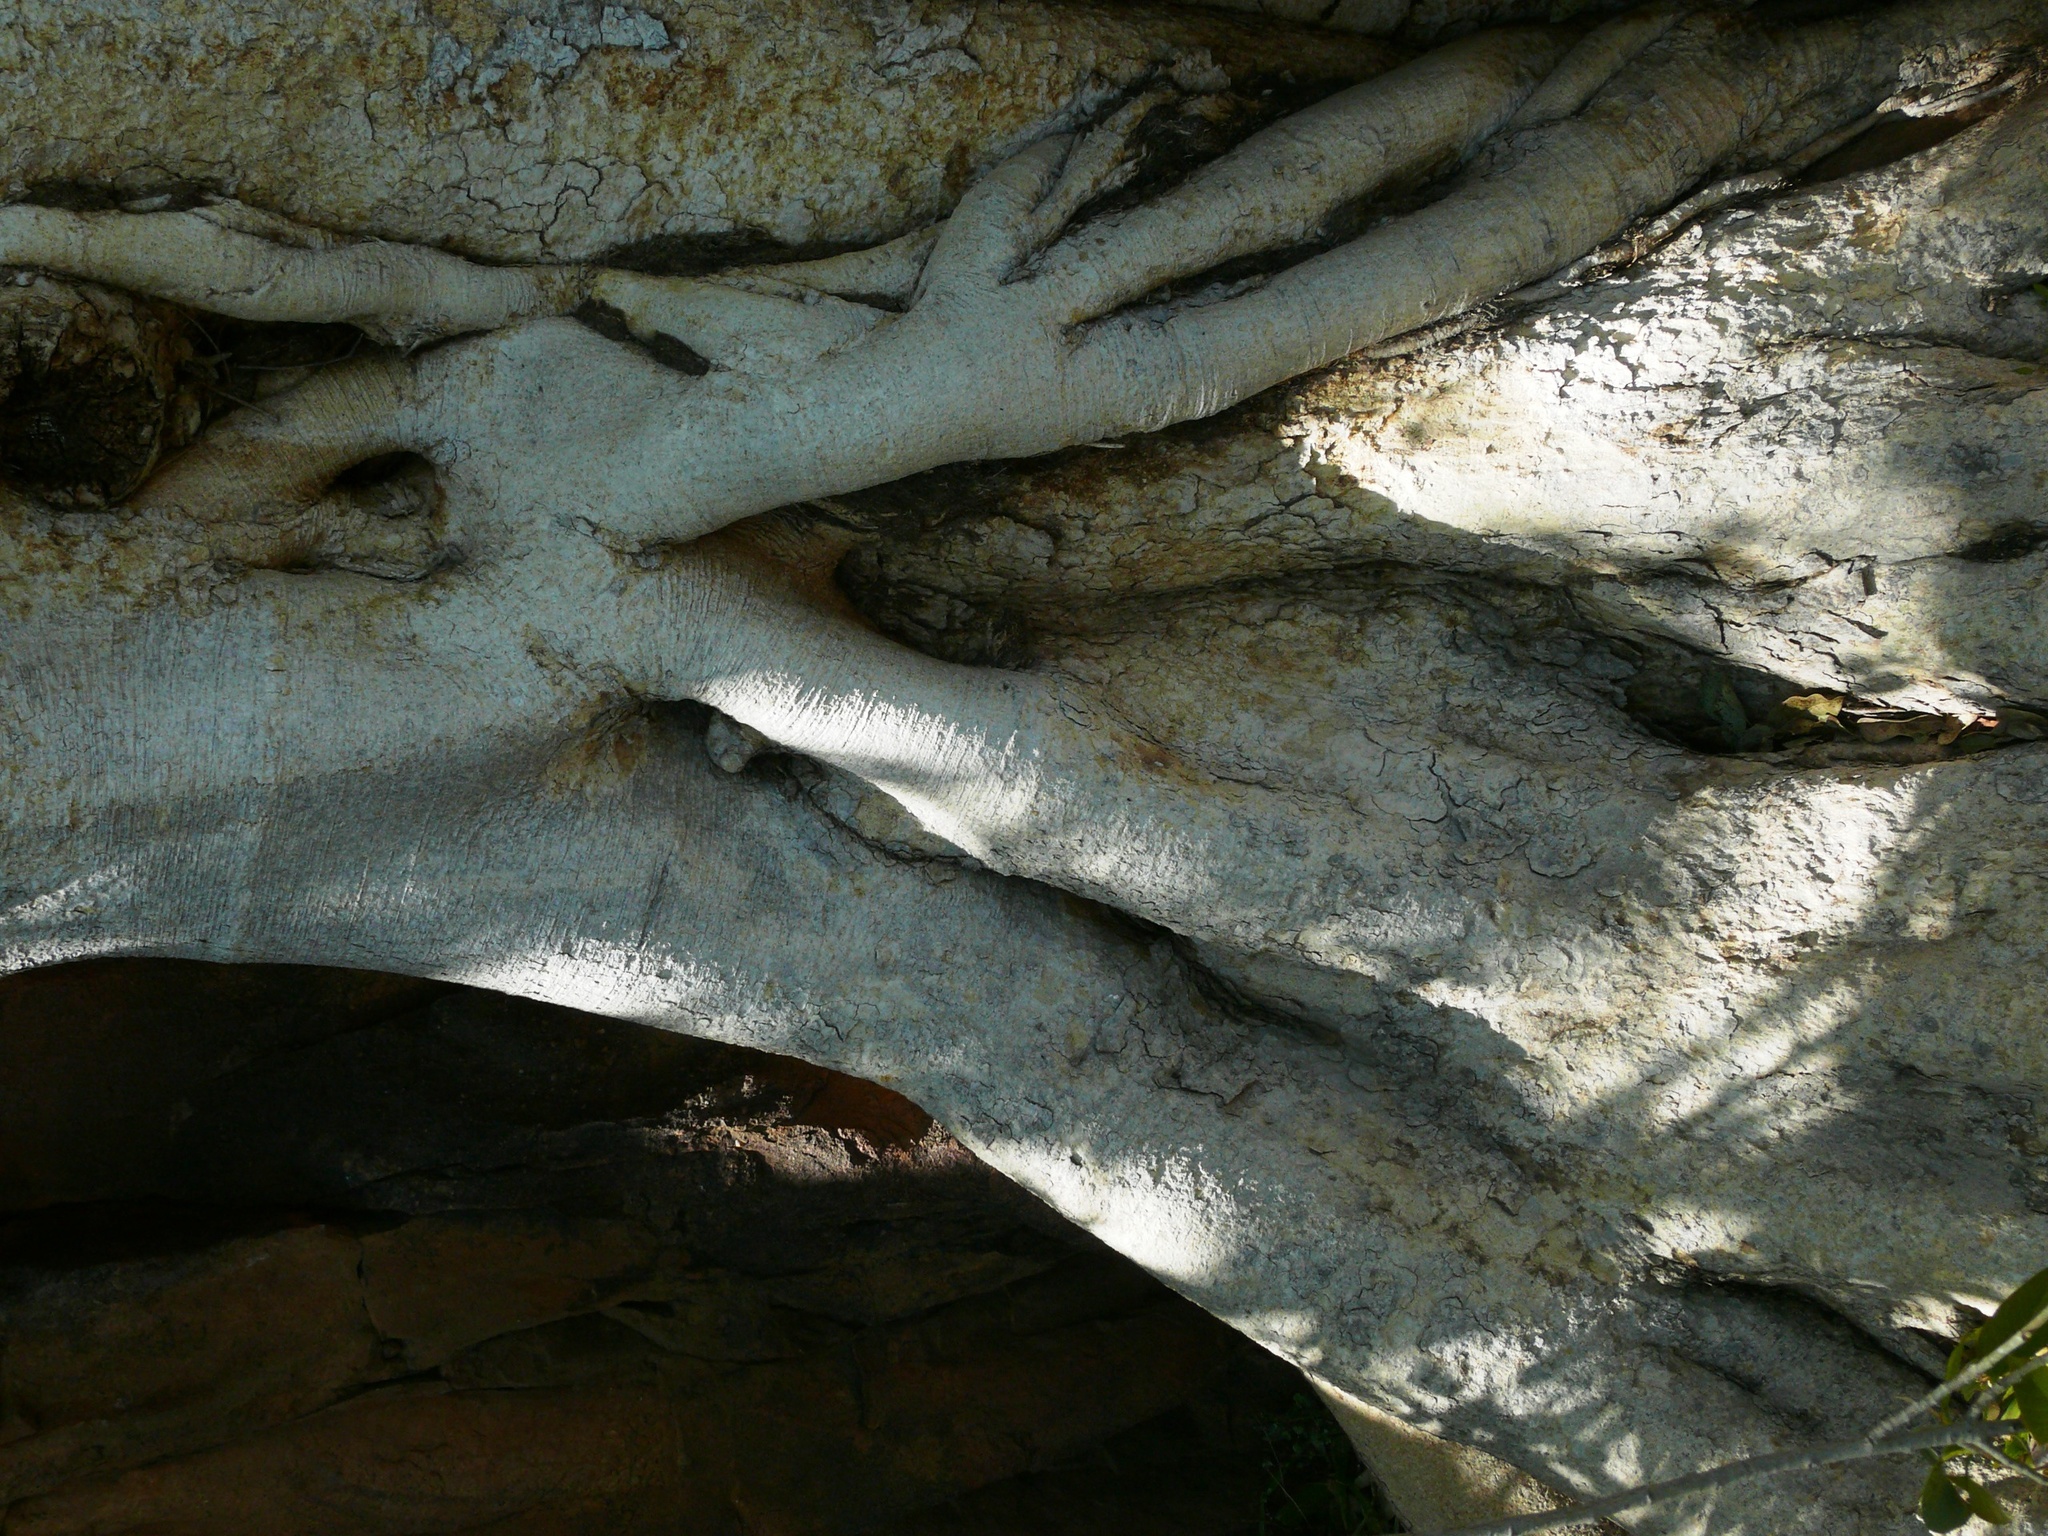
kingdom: Plantae
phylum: Tracheophyta
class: Magnoliopsida
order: Rosales
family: Moraceae
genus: Ficus
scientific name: Ficus cordata
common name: Namaqua rock fig
